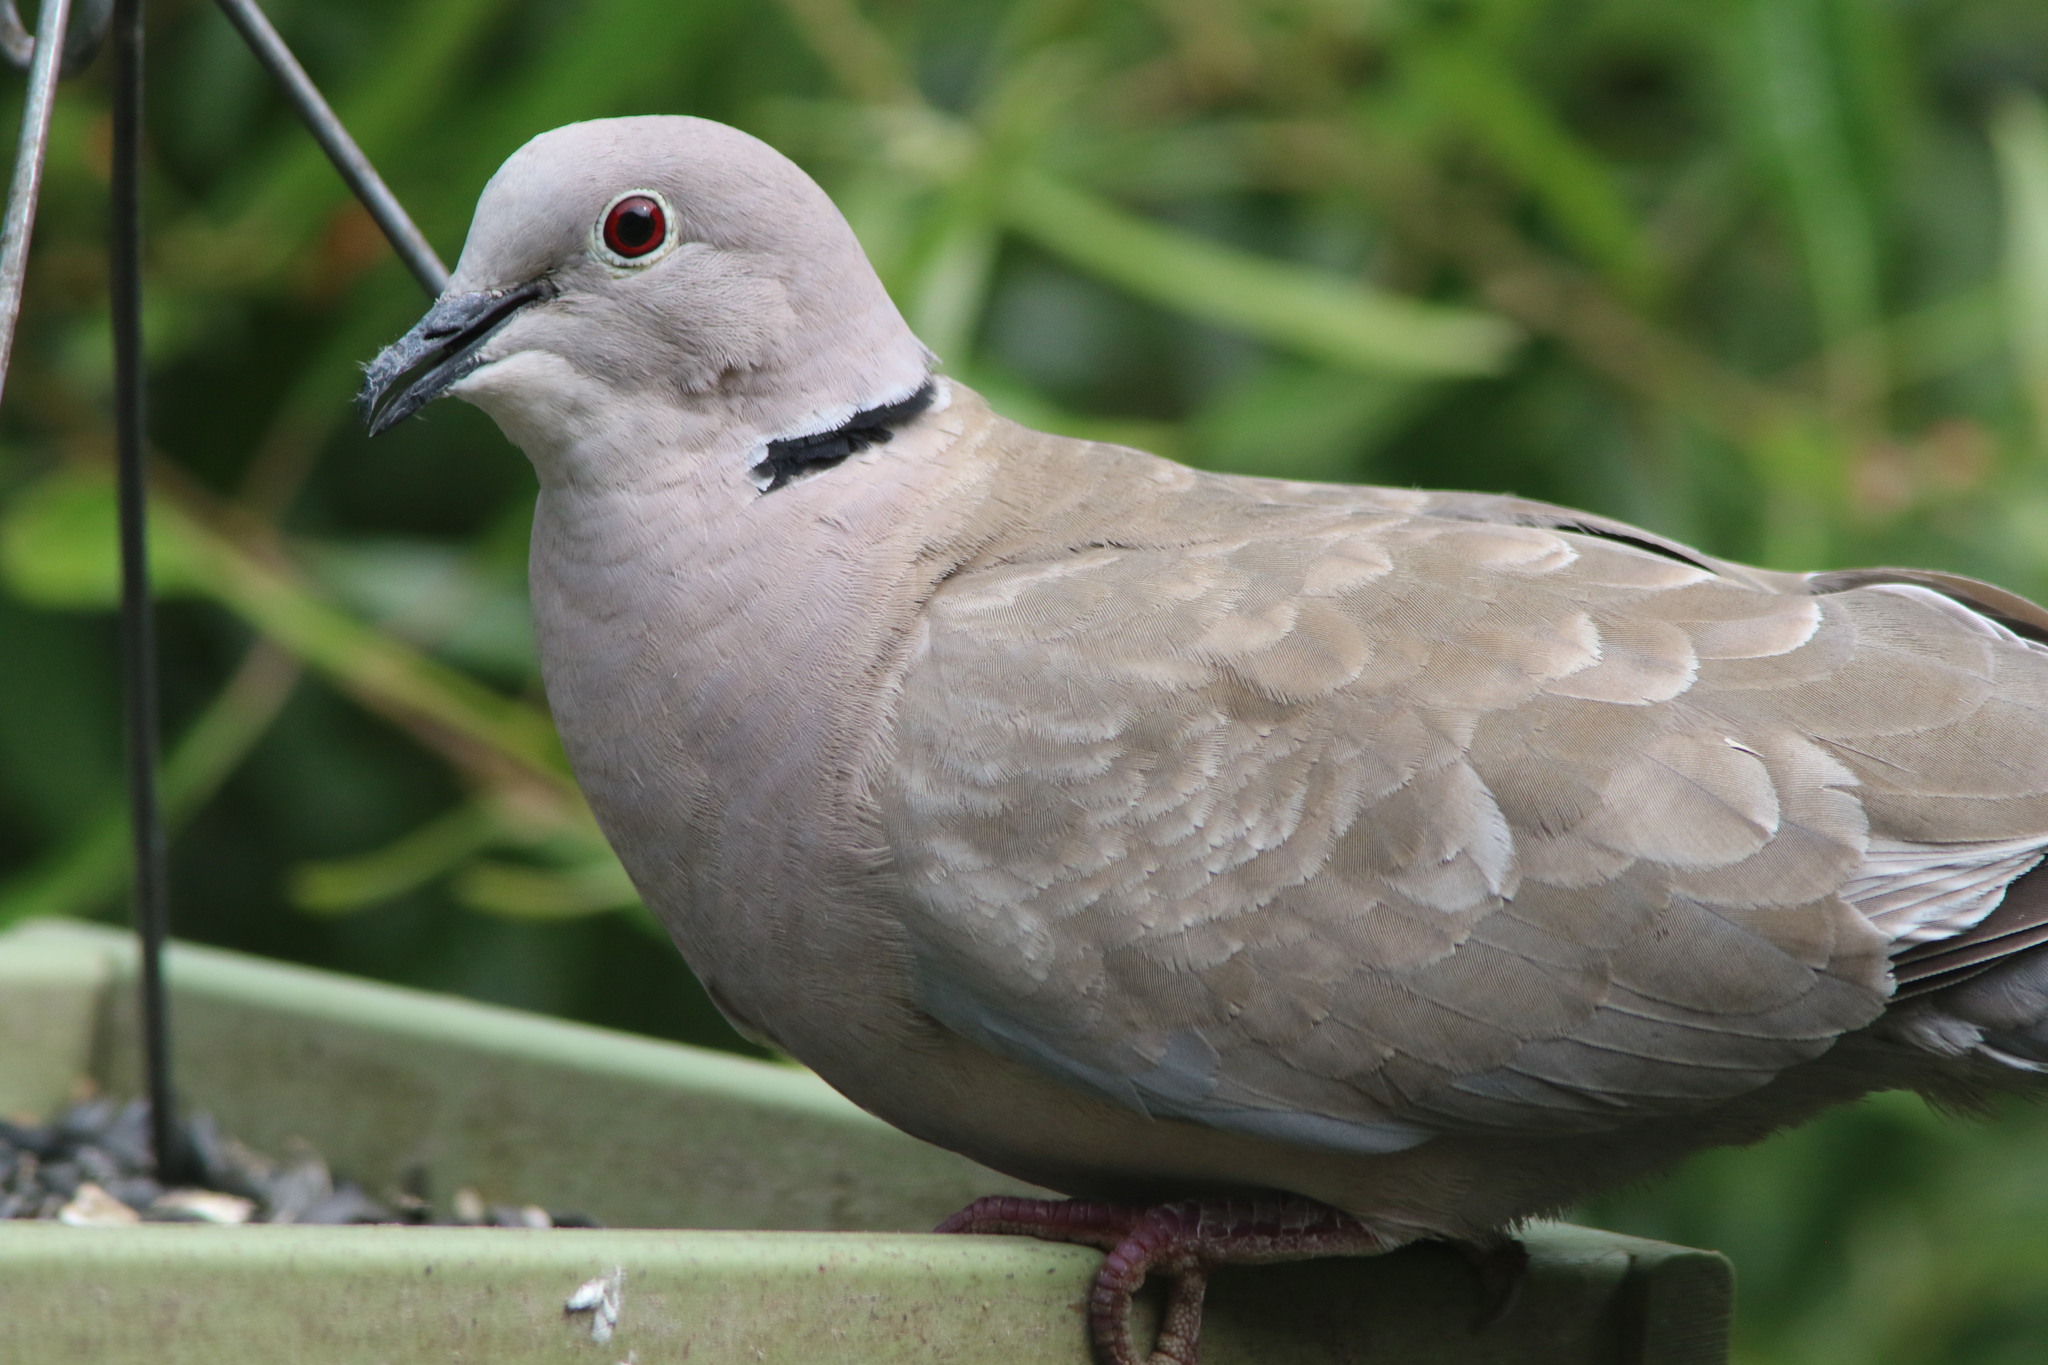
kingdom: Animalia
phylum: Chordata
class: Aves
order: Columbiformes
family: Columbidae
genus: Streptopelia
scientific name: Streptopelia decaocto
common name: Eurasian collared dove
